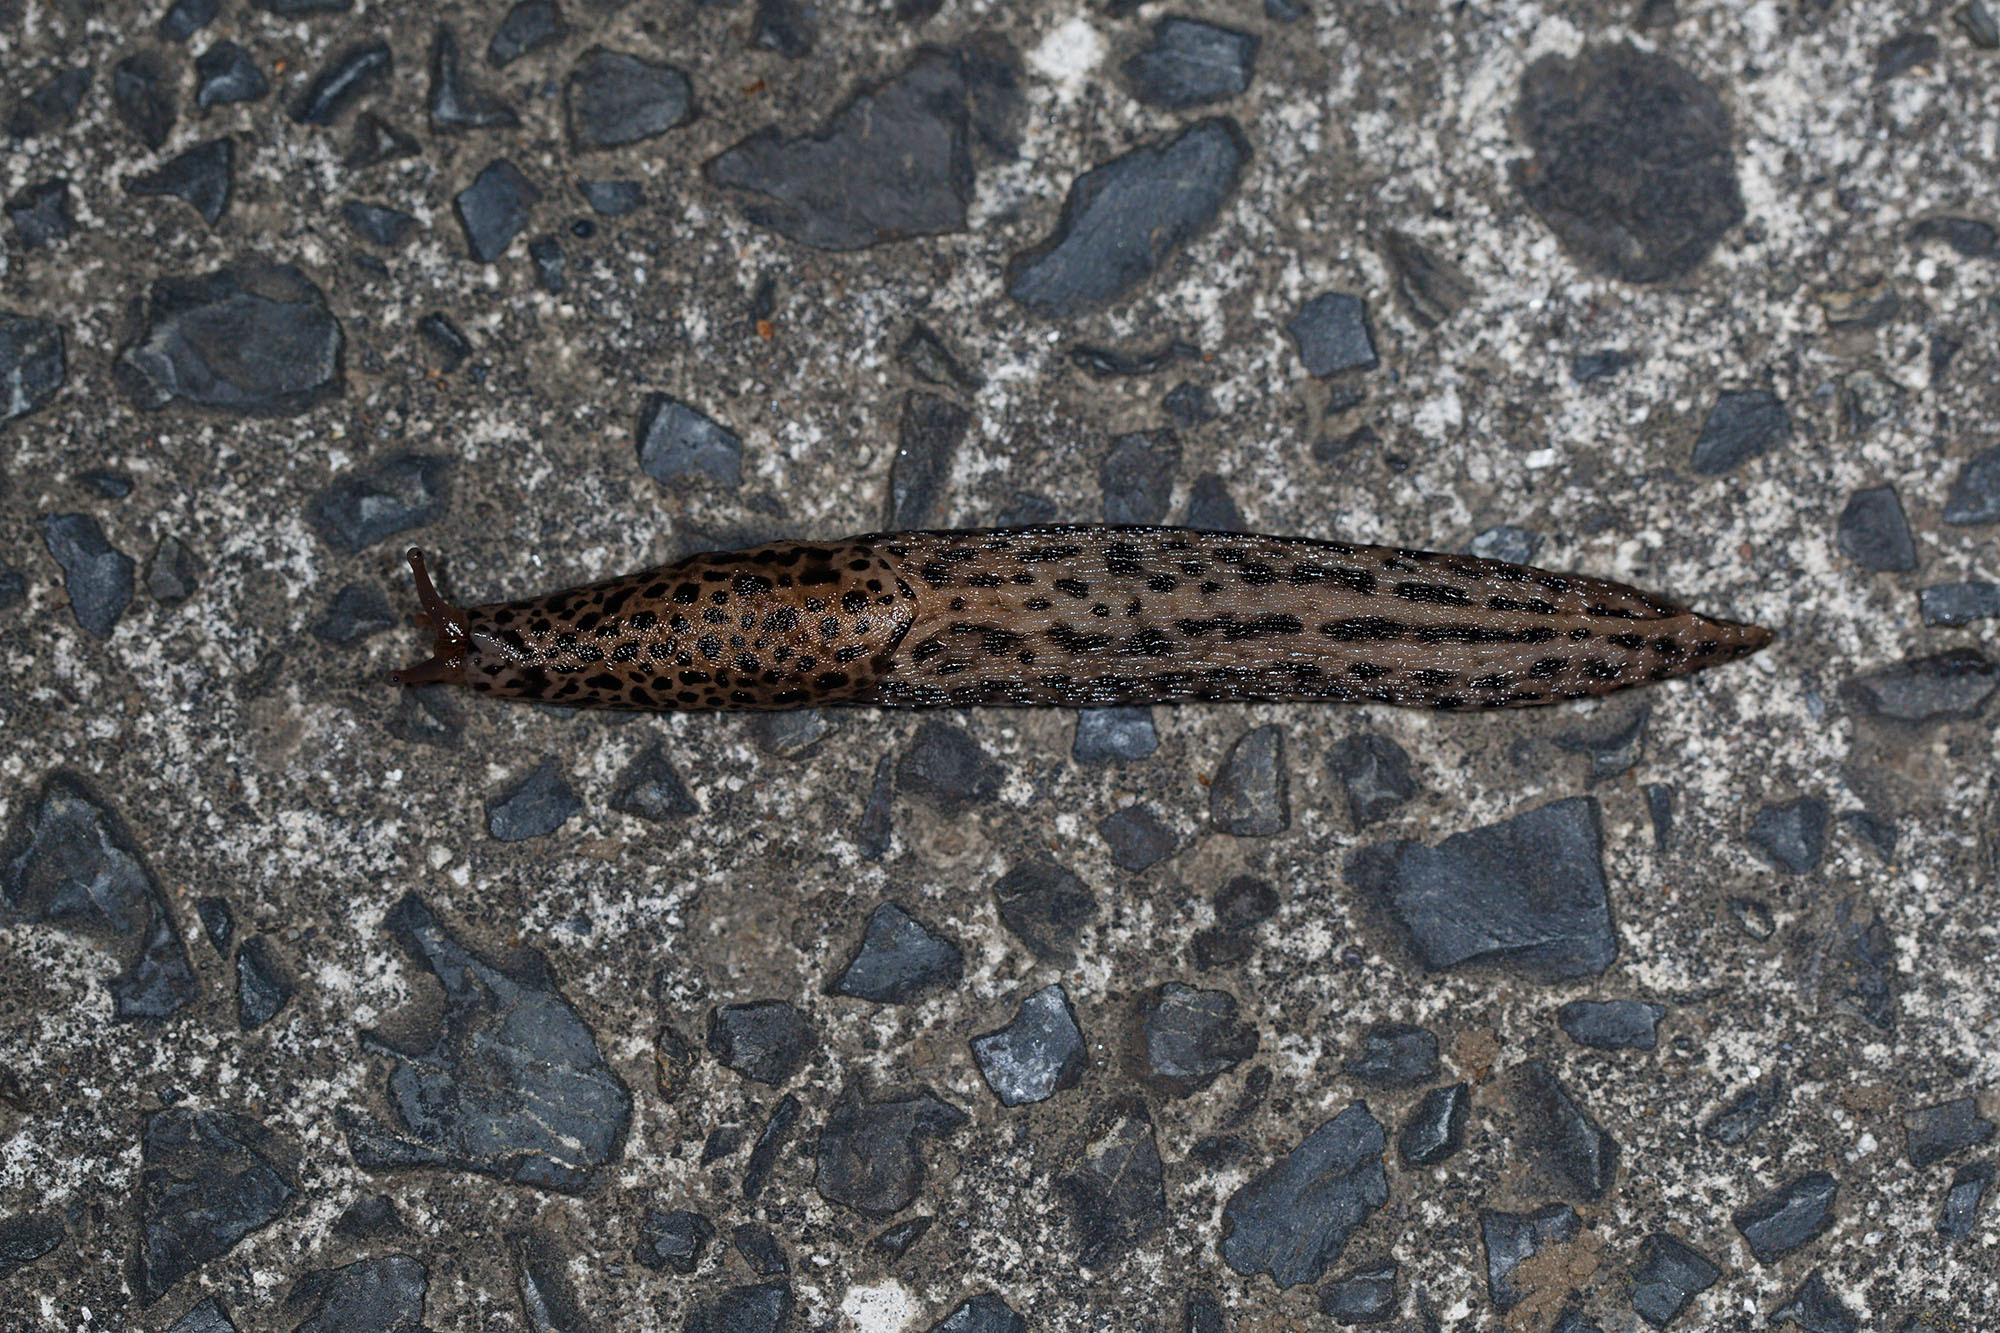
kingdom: Animalia
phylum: Mollusca
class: Gastropoda
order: Stylommatophora
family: Limacidae
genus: Limax
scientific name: Limax maximus
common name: Great grey slug
